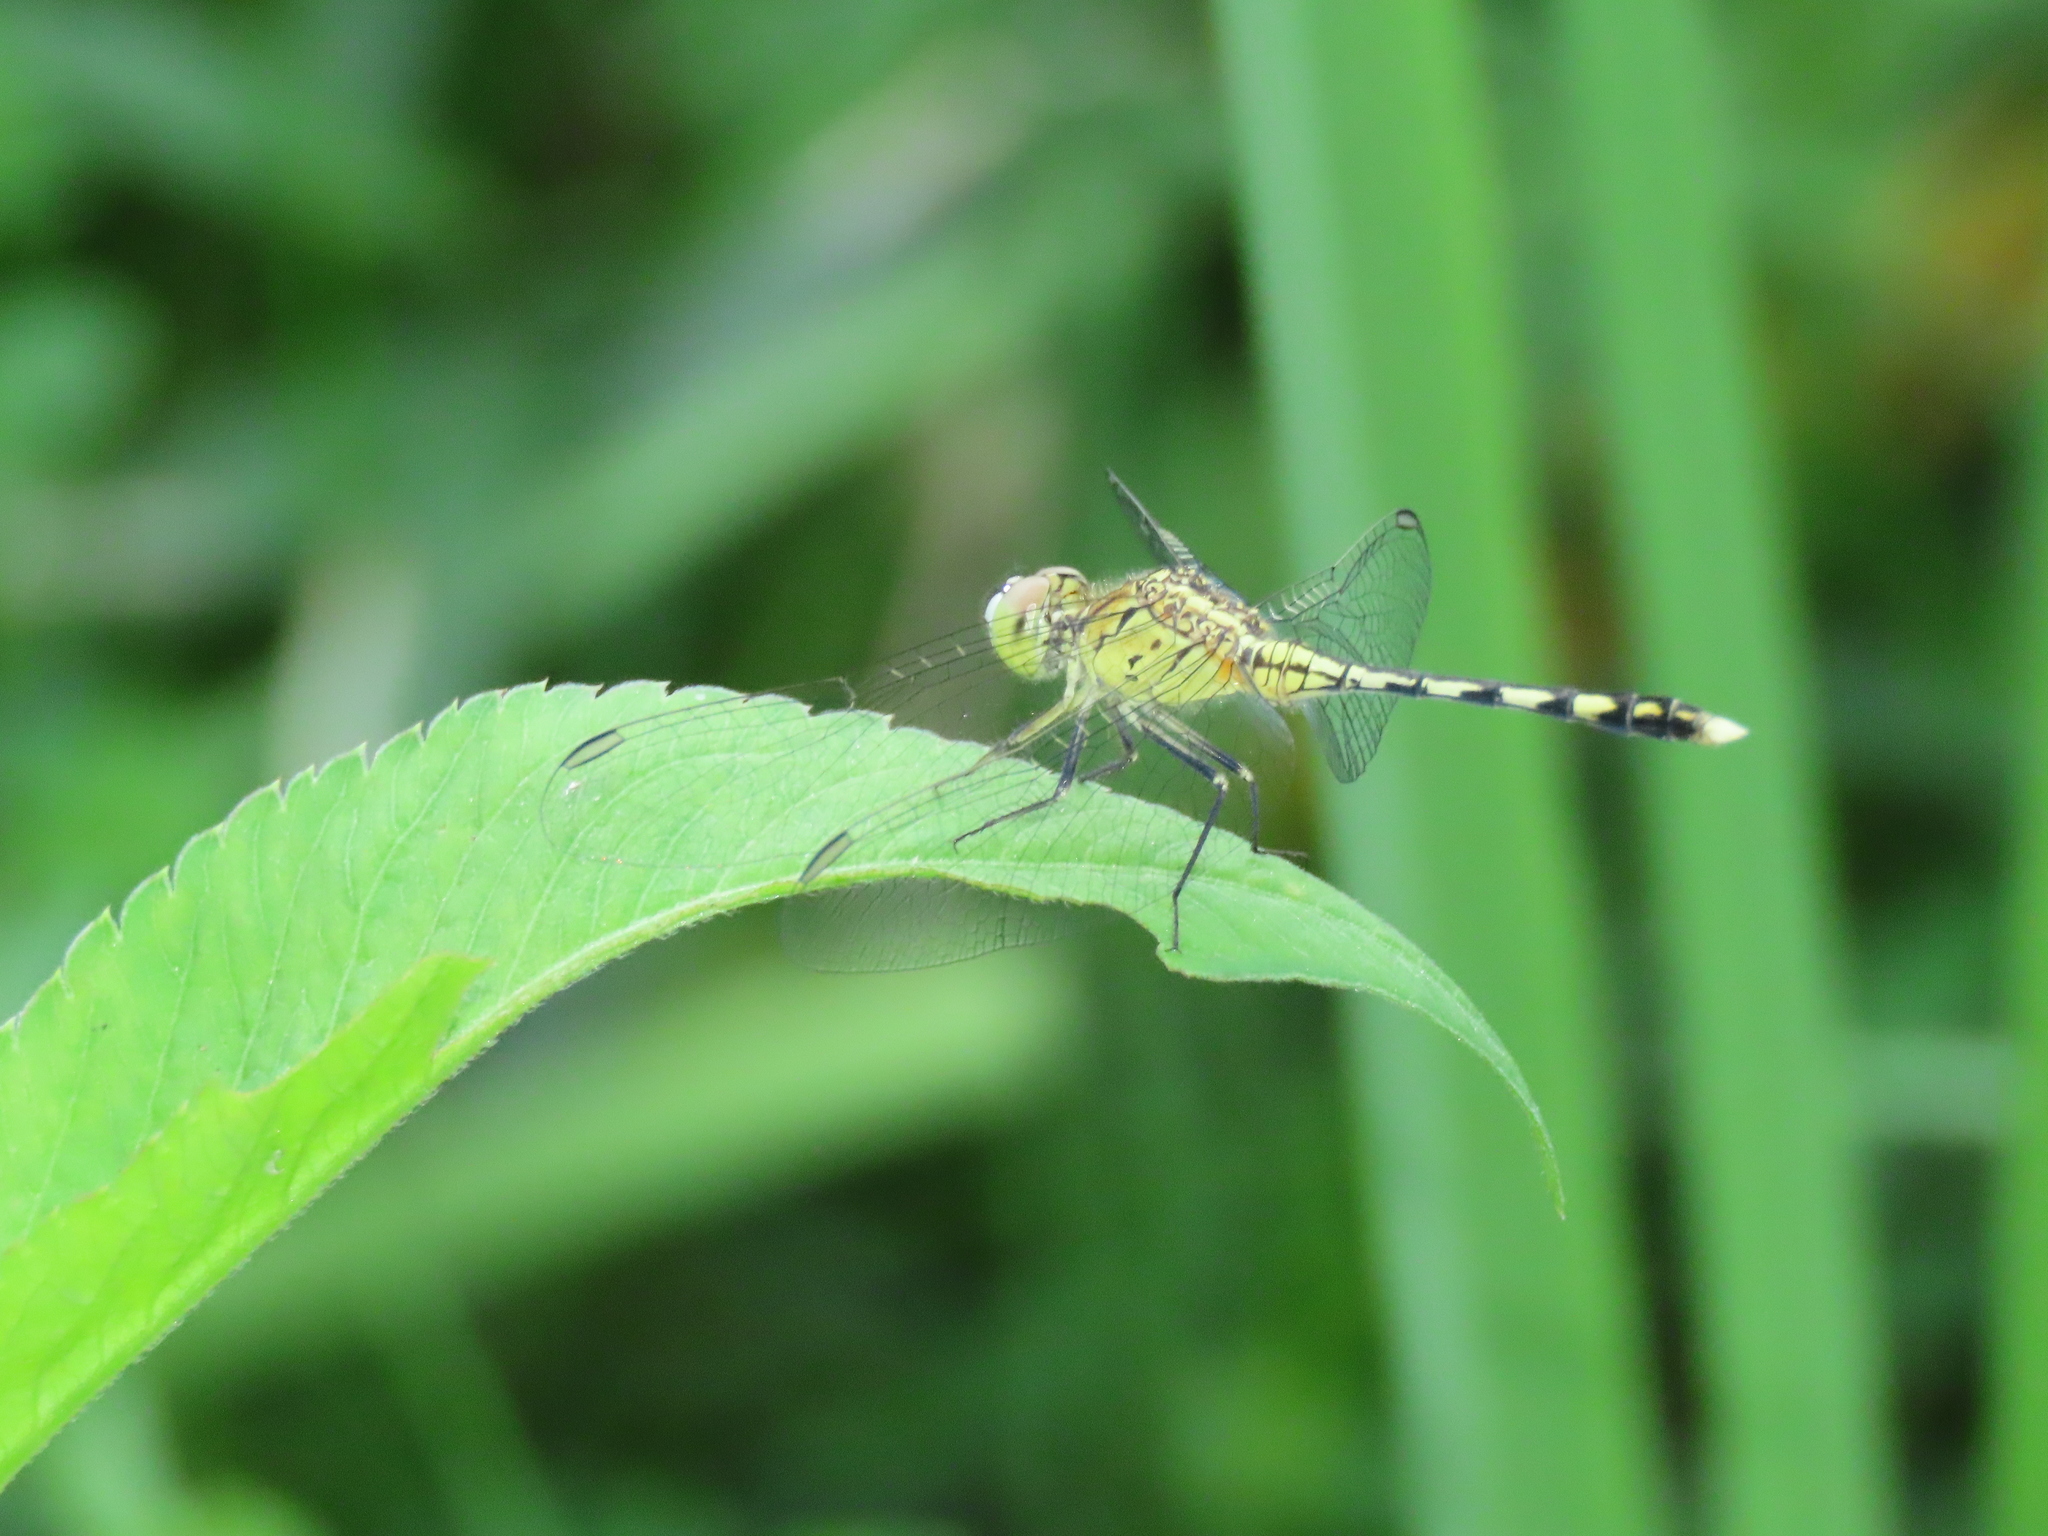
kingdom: Animalia
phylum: Arthropoda
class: Insecta
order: Odonata
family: Libellulidae
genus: Diplacodes
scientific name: Diplacodes trivialis
